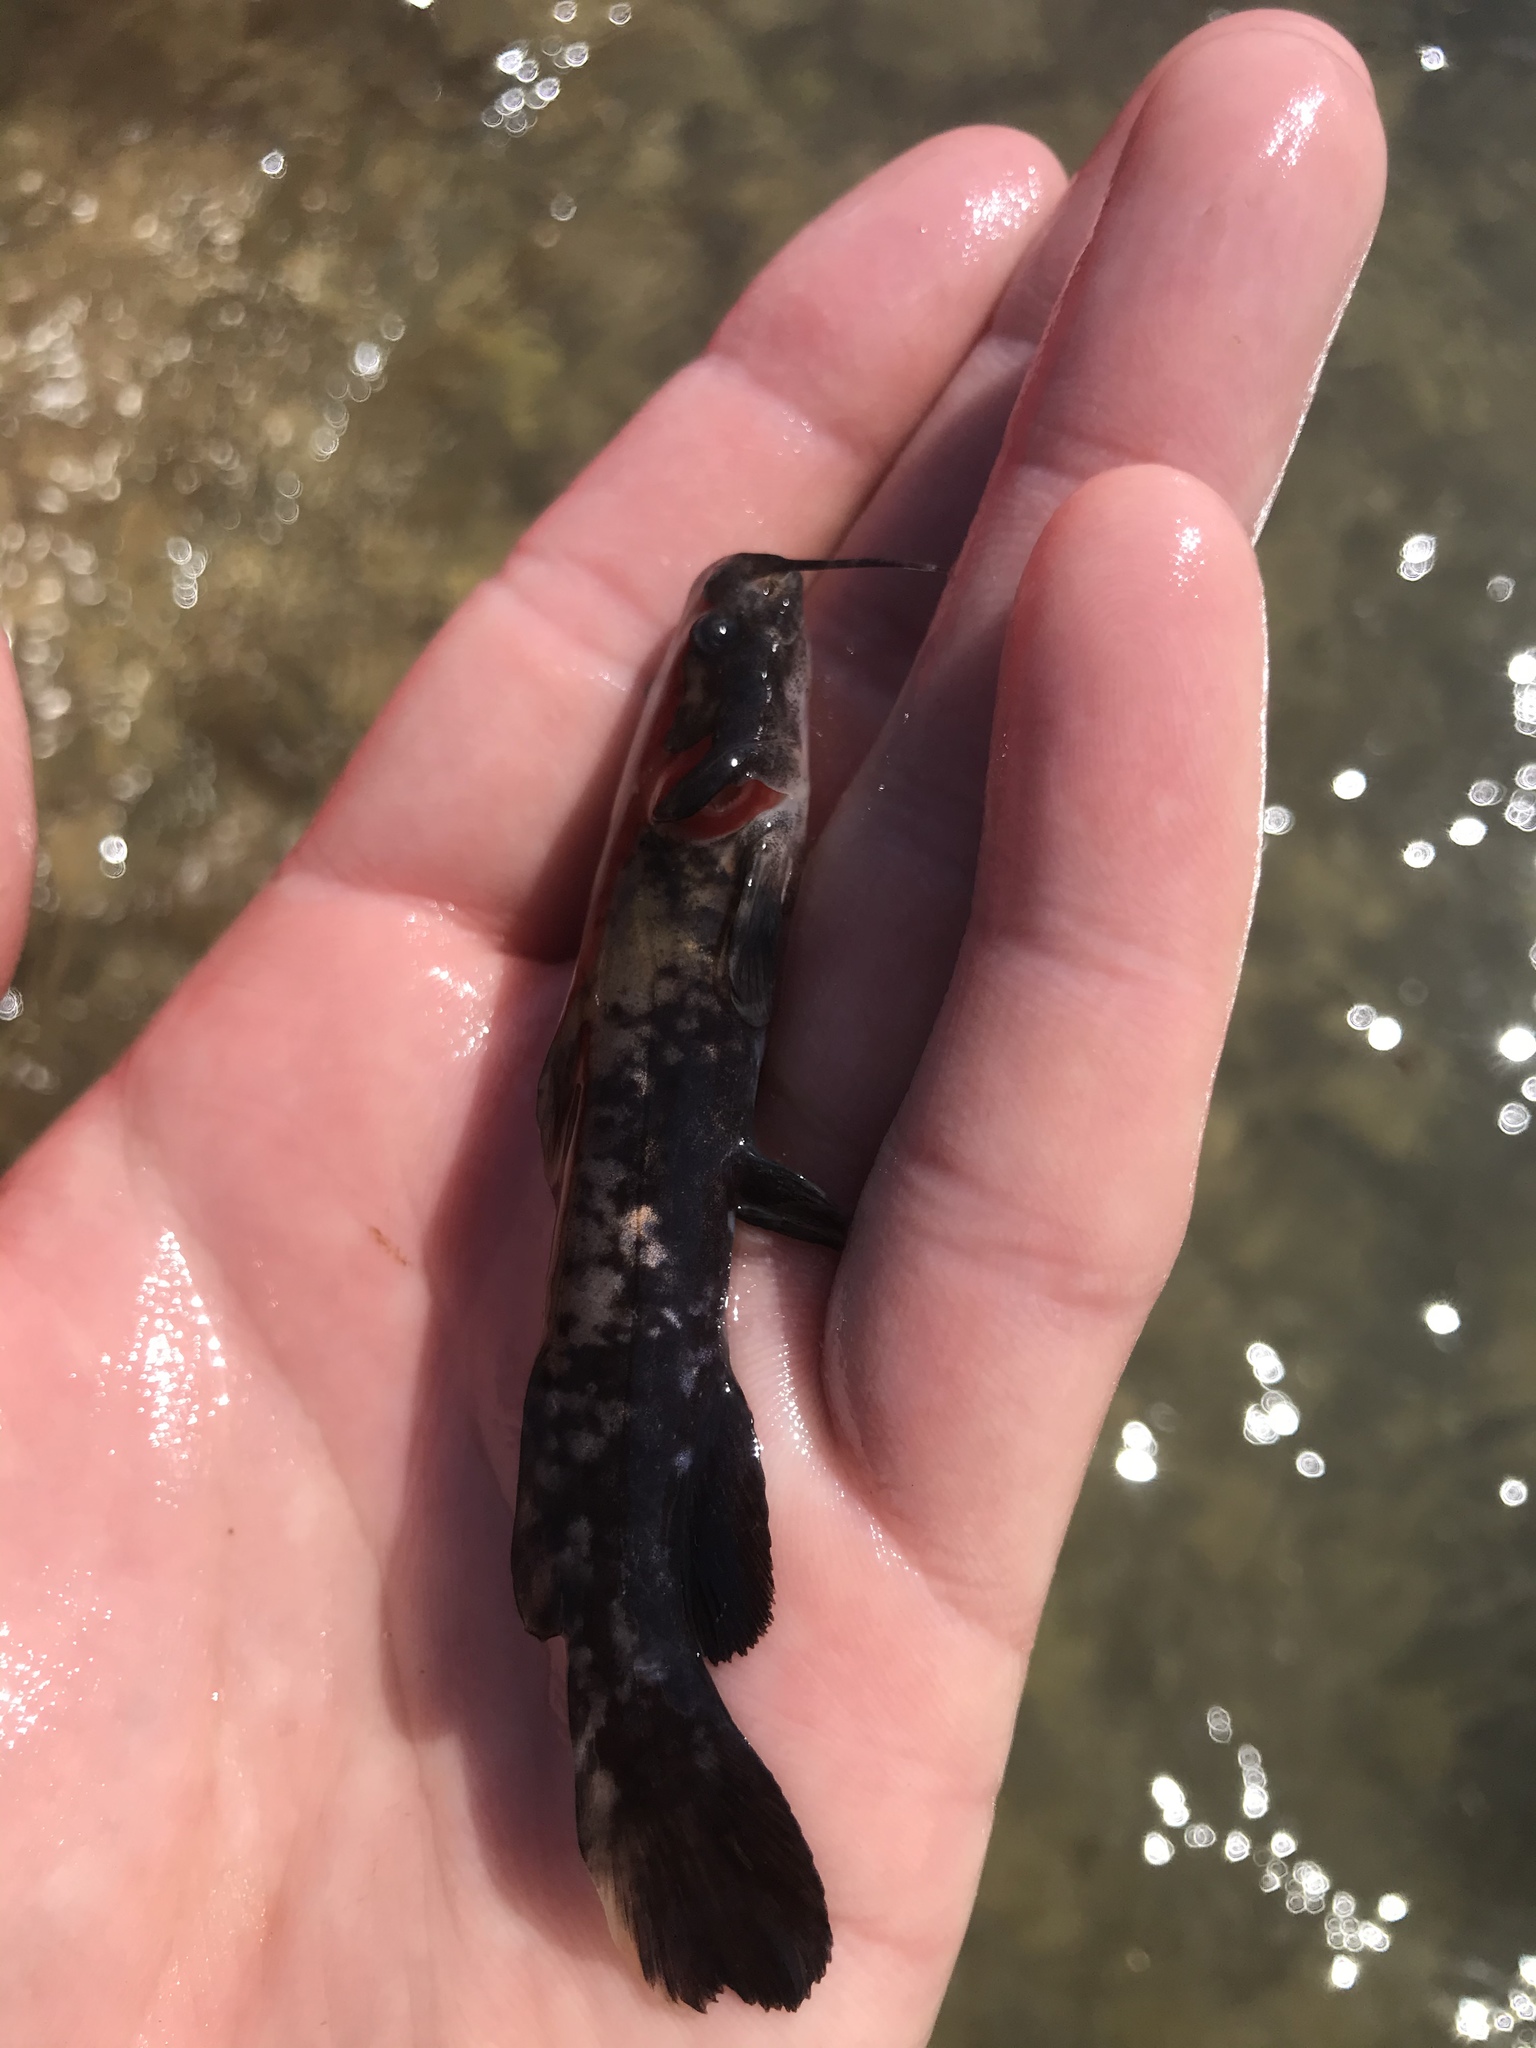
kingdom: Animalia
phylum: Chordata
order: Siluriformes
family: Ictaluridae
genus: Pylodictis
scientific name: Pylodictis olivaris
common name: Flathead catfish
